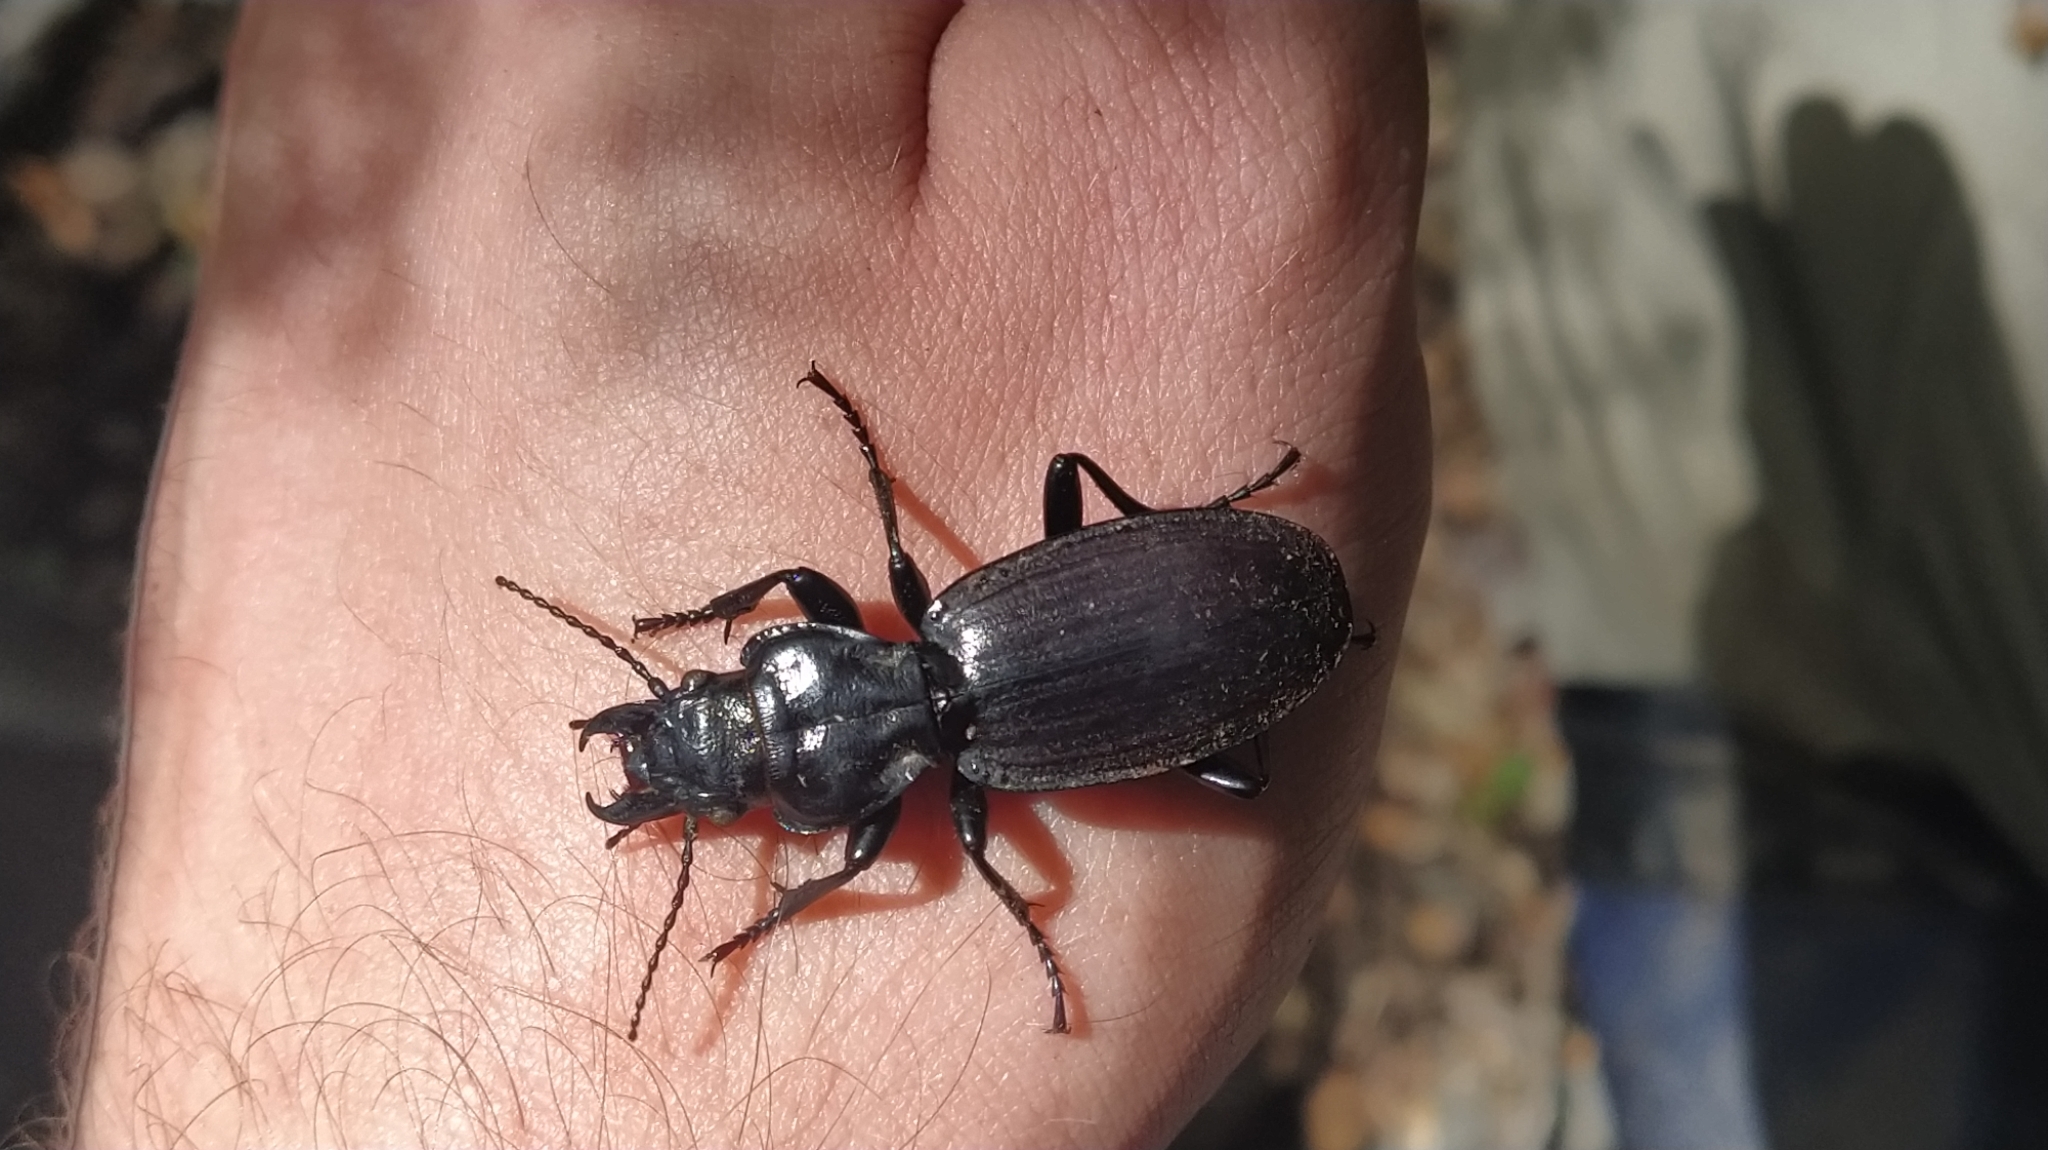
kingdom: Animalia
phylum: Arthropoda
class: Insecta
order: Coleoptera
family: Carabidae
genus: Mecodema
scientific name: Mecodema allani
